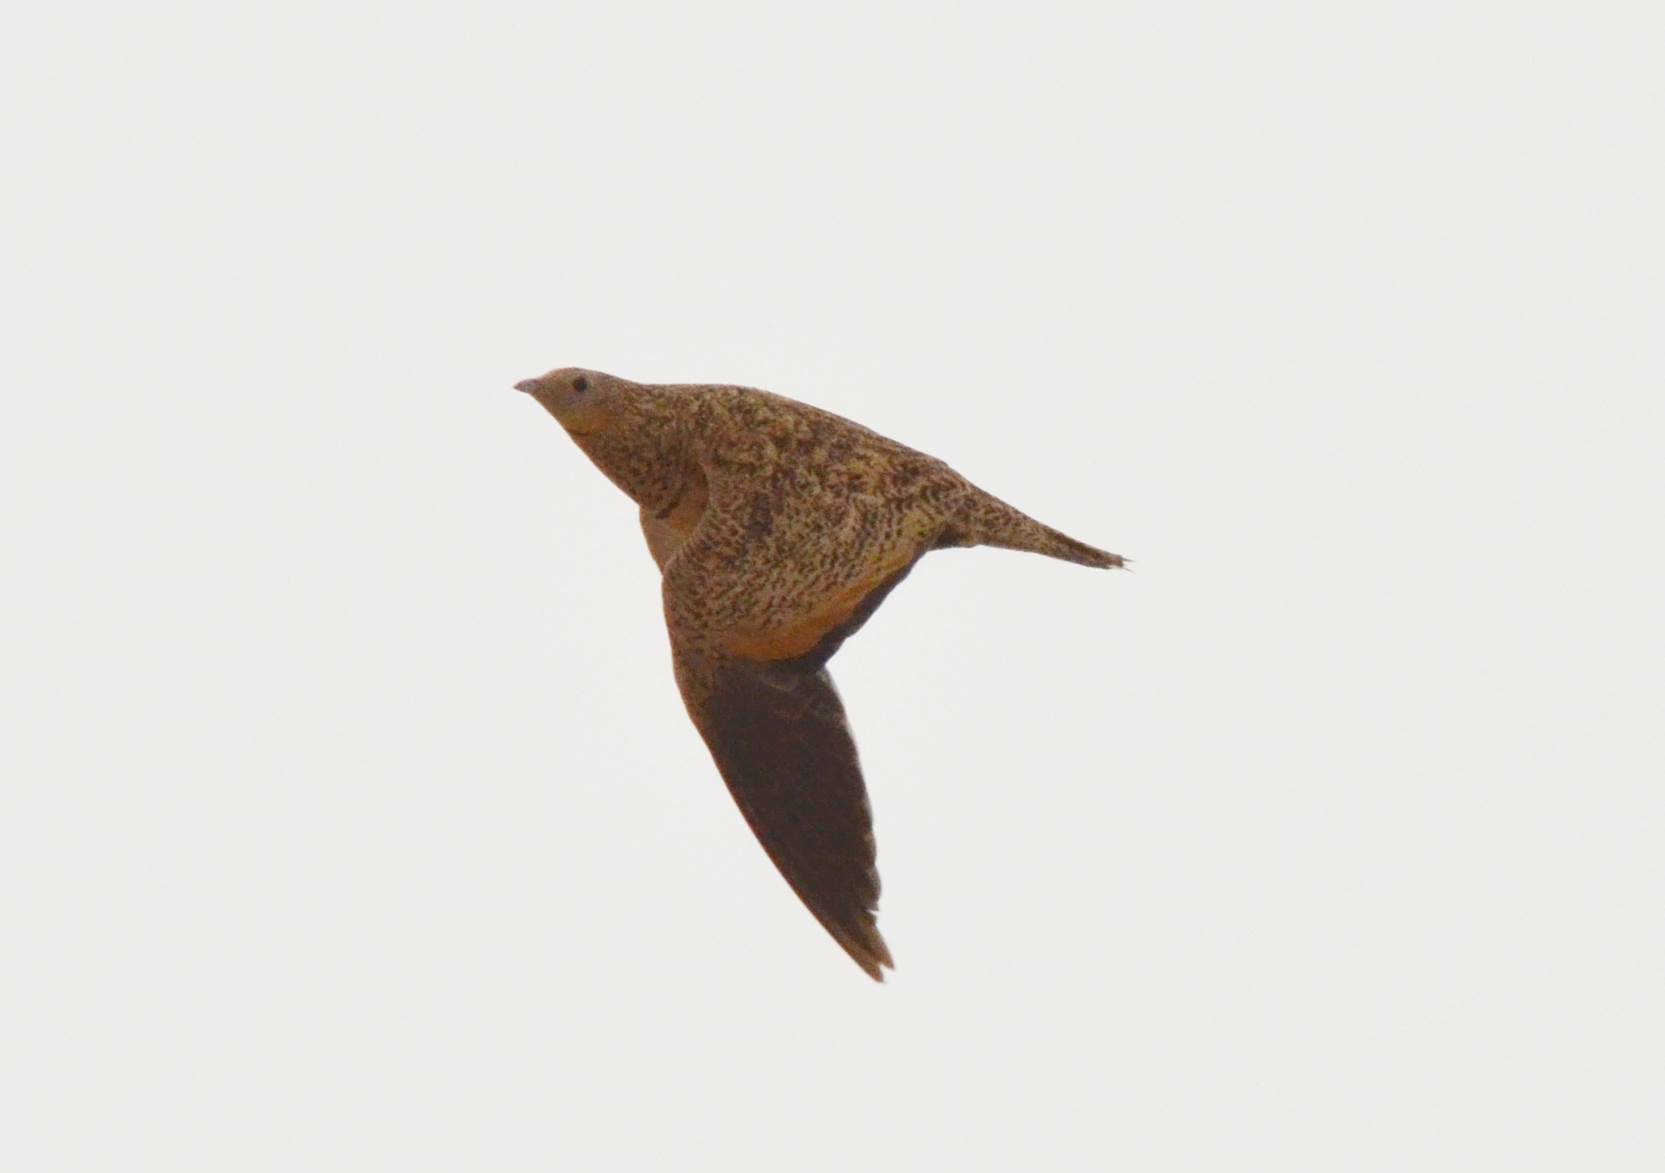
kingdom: Animalia
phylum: Chordata
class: Aves
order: Pteroclidiformes
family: Pteroclididae
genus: Pterocles
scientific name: Pterocles orientalis
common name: Black-bellied sandgrouse
